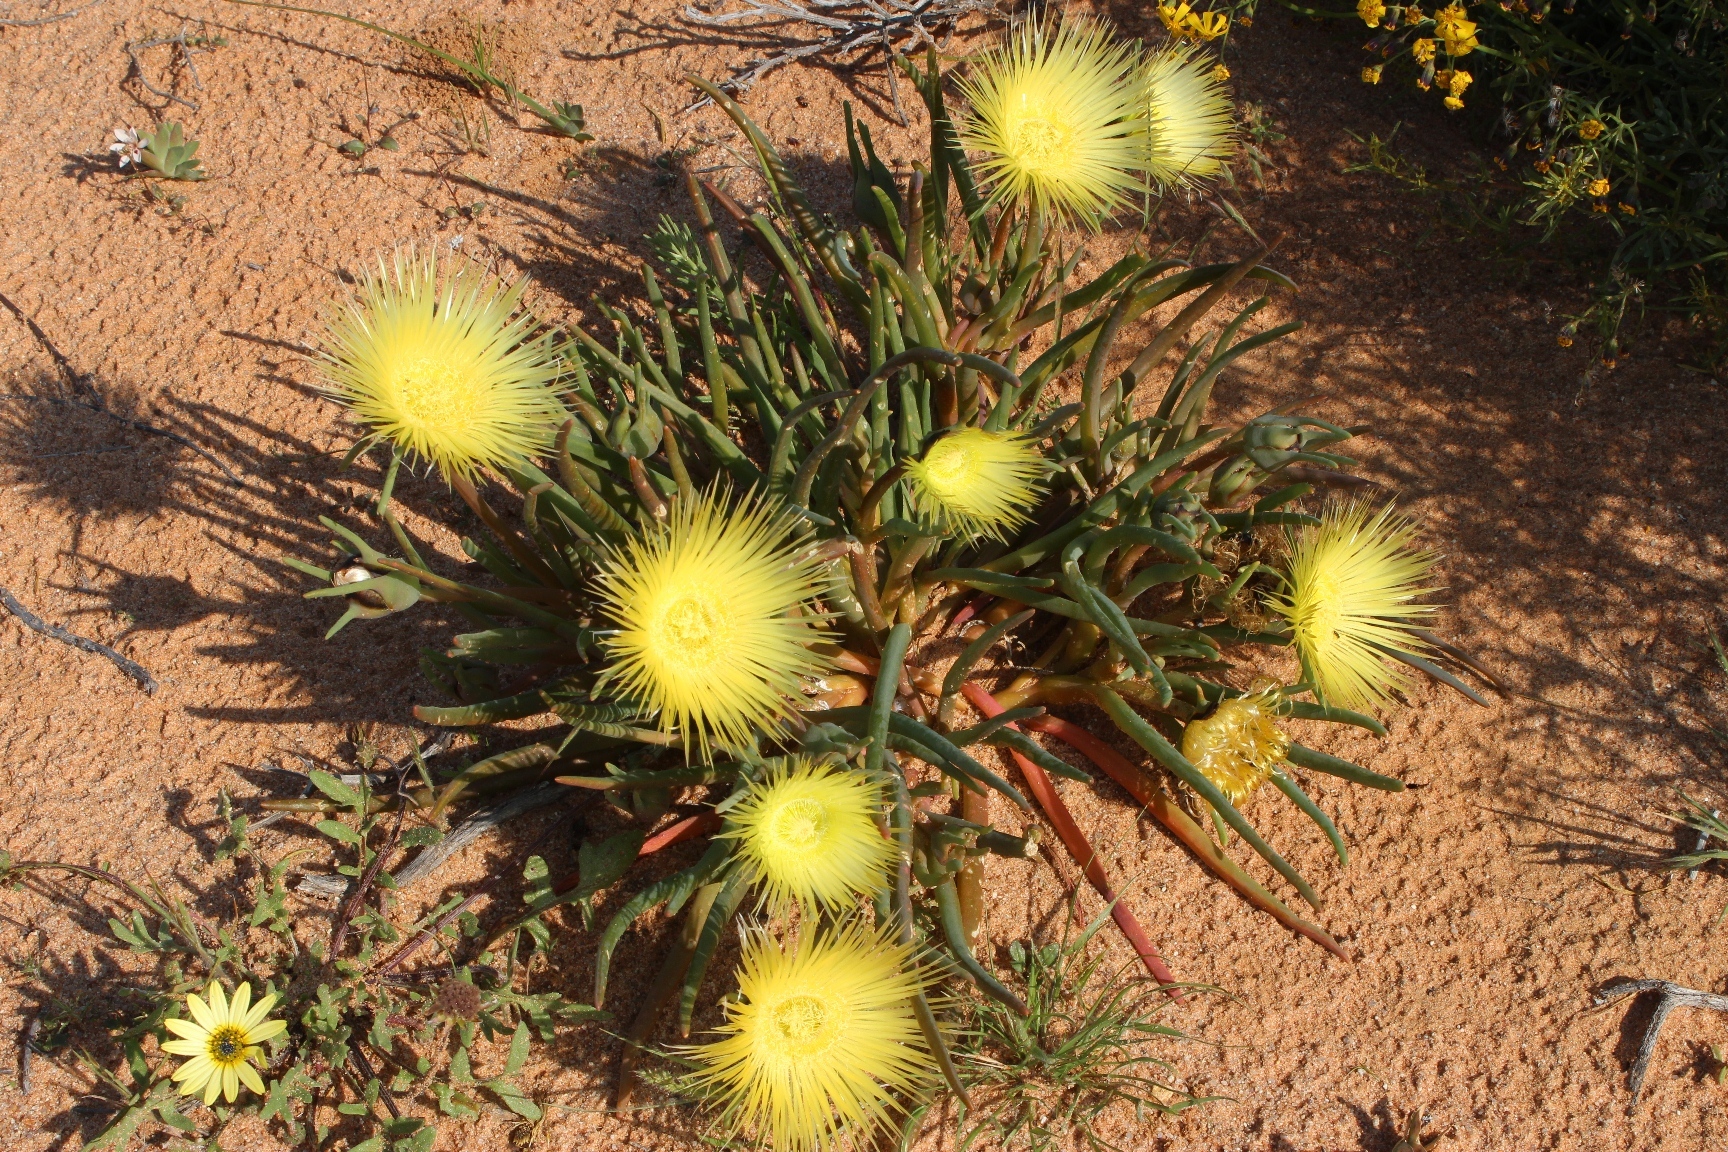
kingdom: Plantae
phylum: Tracheophyta
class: Magnoliopsida
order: Caryophyllales
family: Aizoaceae
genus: Conicosia
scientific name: Conicosia elongata
